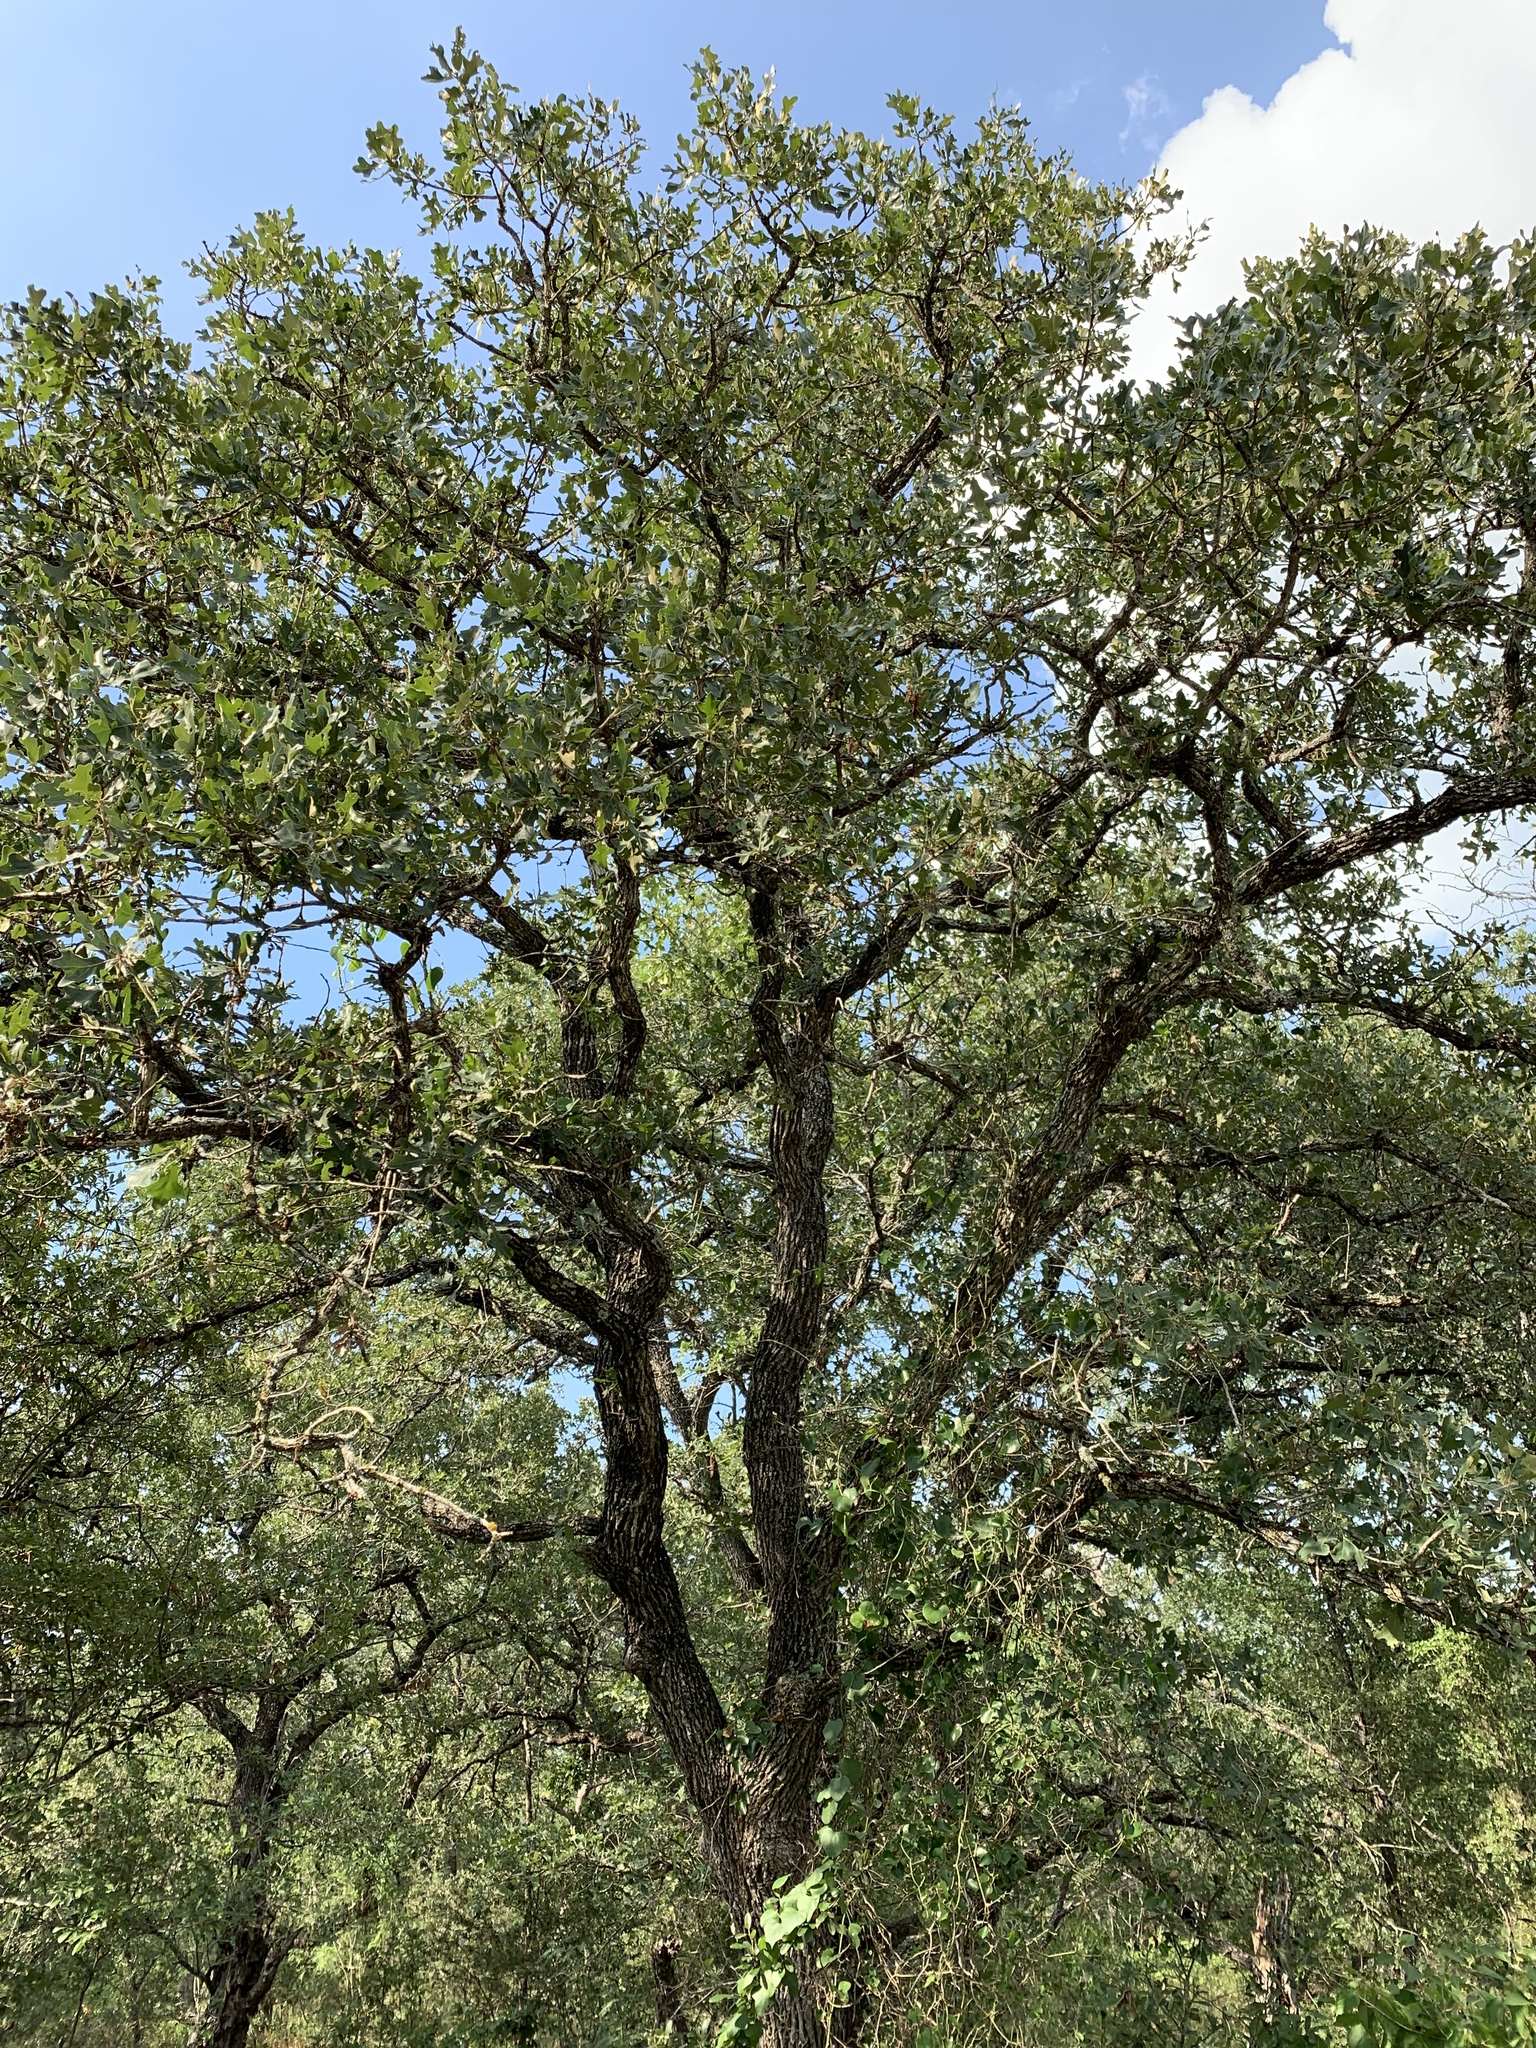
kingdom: Plantae
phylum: Tracheophyta
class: Magnoliopsida
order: Fagales
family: Fagaceae
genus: Quercus
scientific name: Quercus stellata
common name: Post oak
